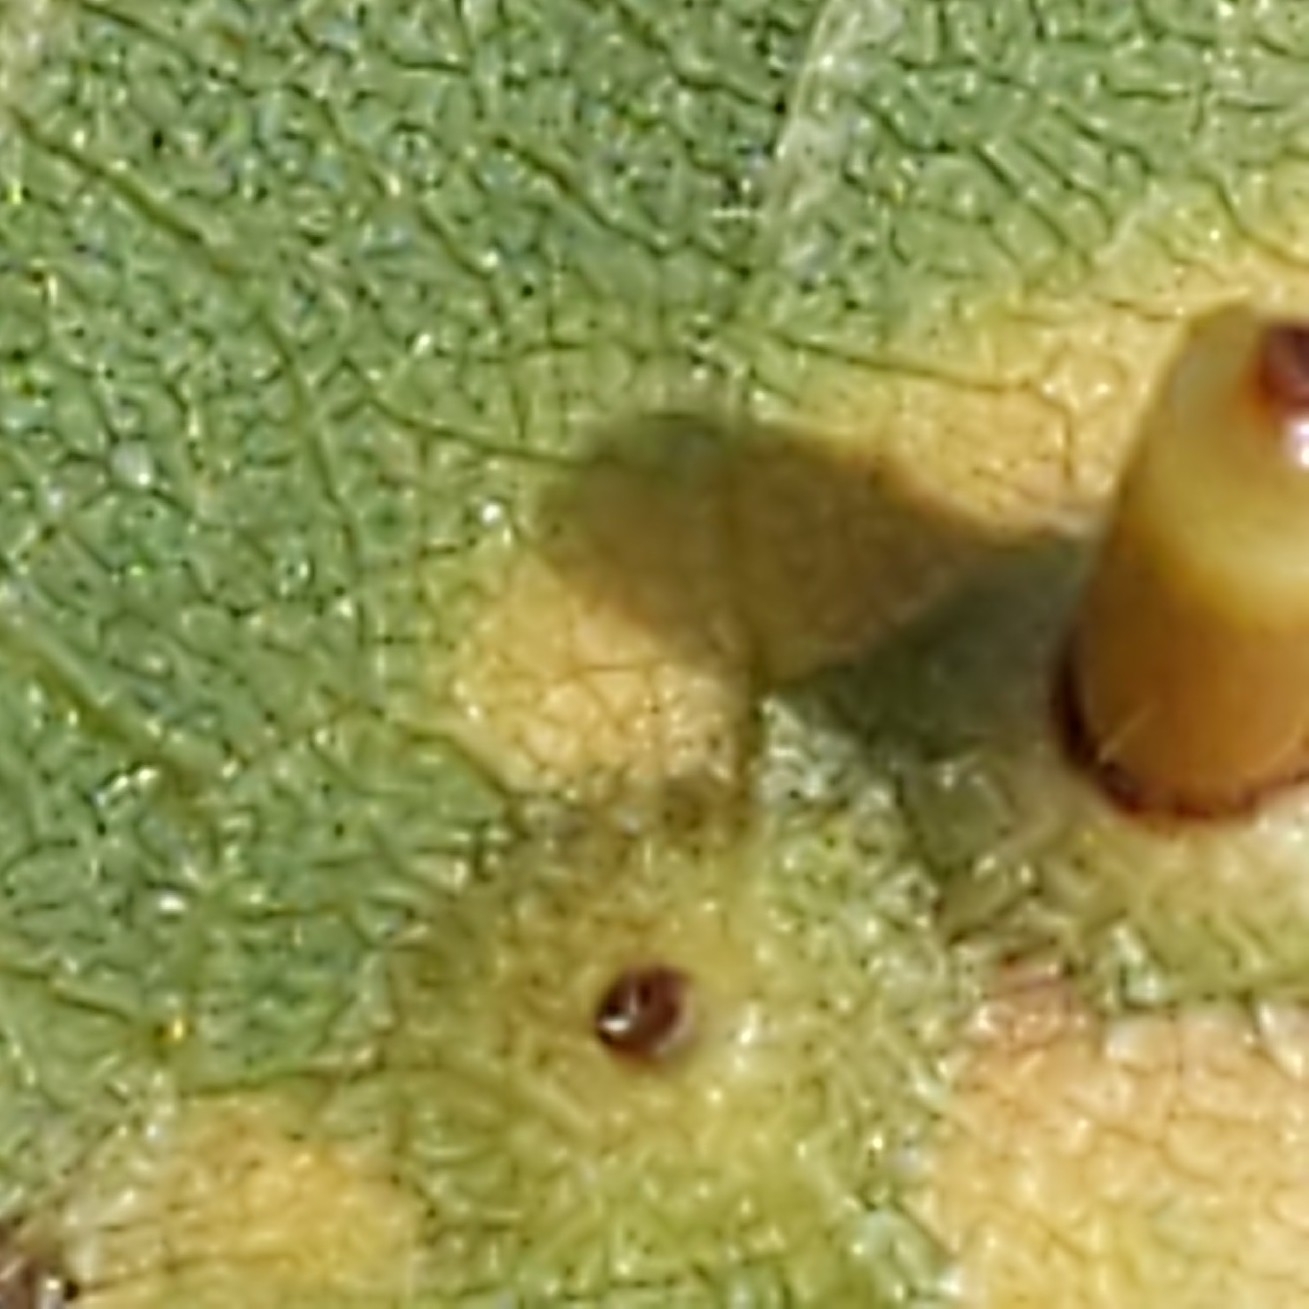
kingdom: Animalia
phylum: Arthropoda
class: Insecta
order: Diptera
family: Cecidomyiidae
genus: Caryomyia
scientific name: Caryomyia tubicola
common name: Hickory bullet gall midge
